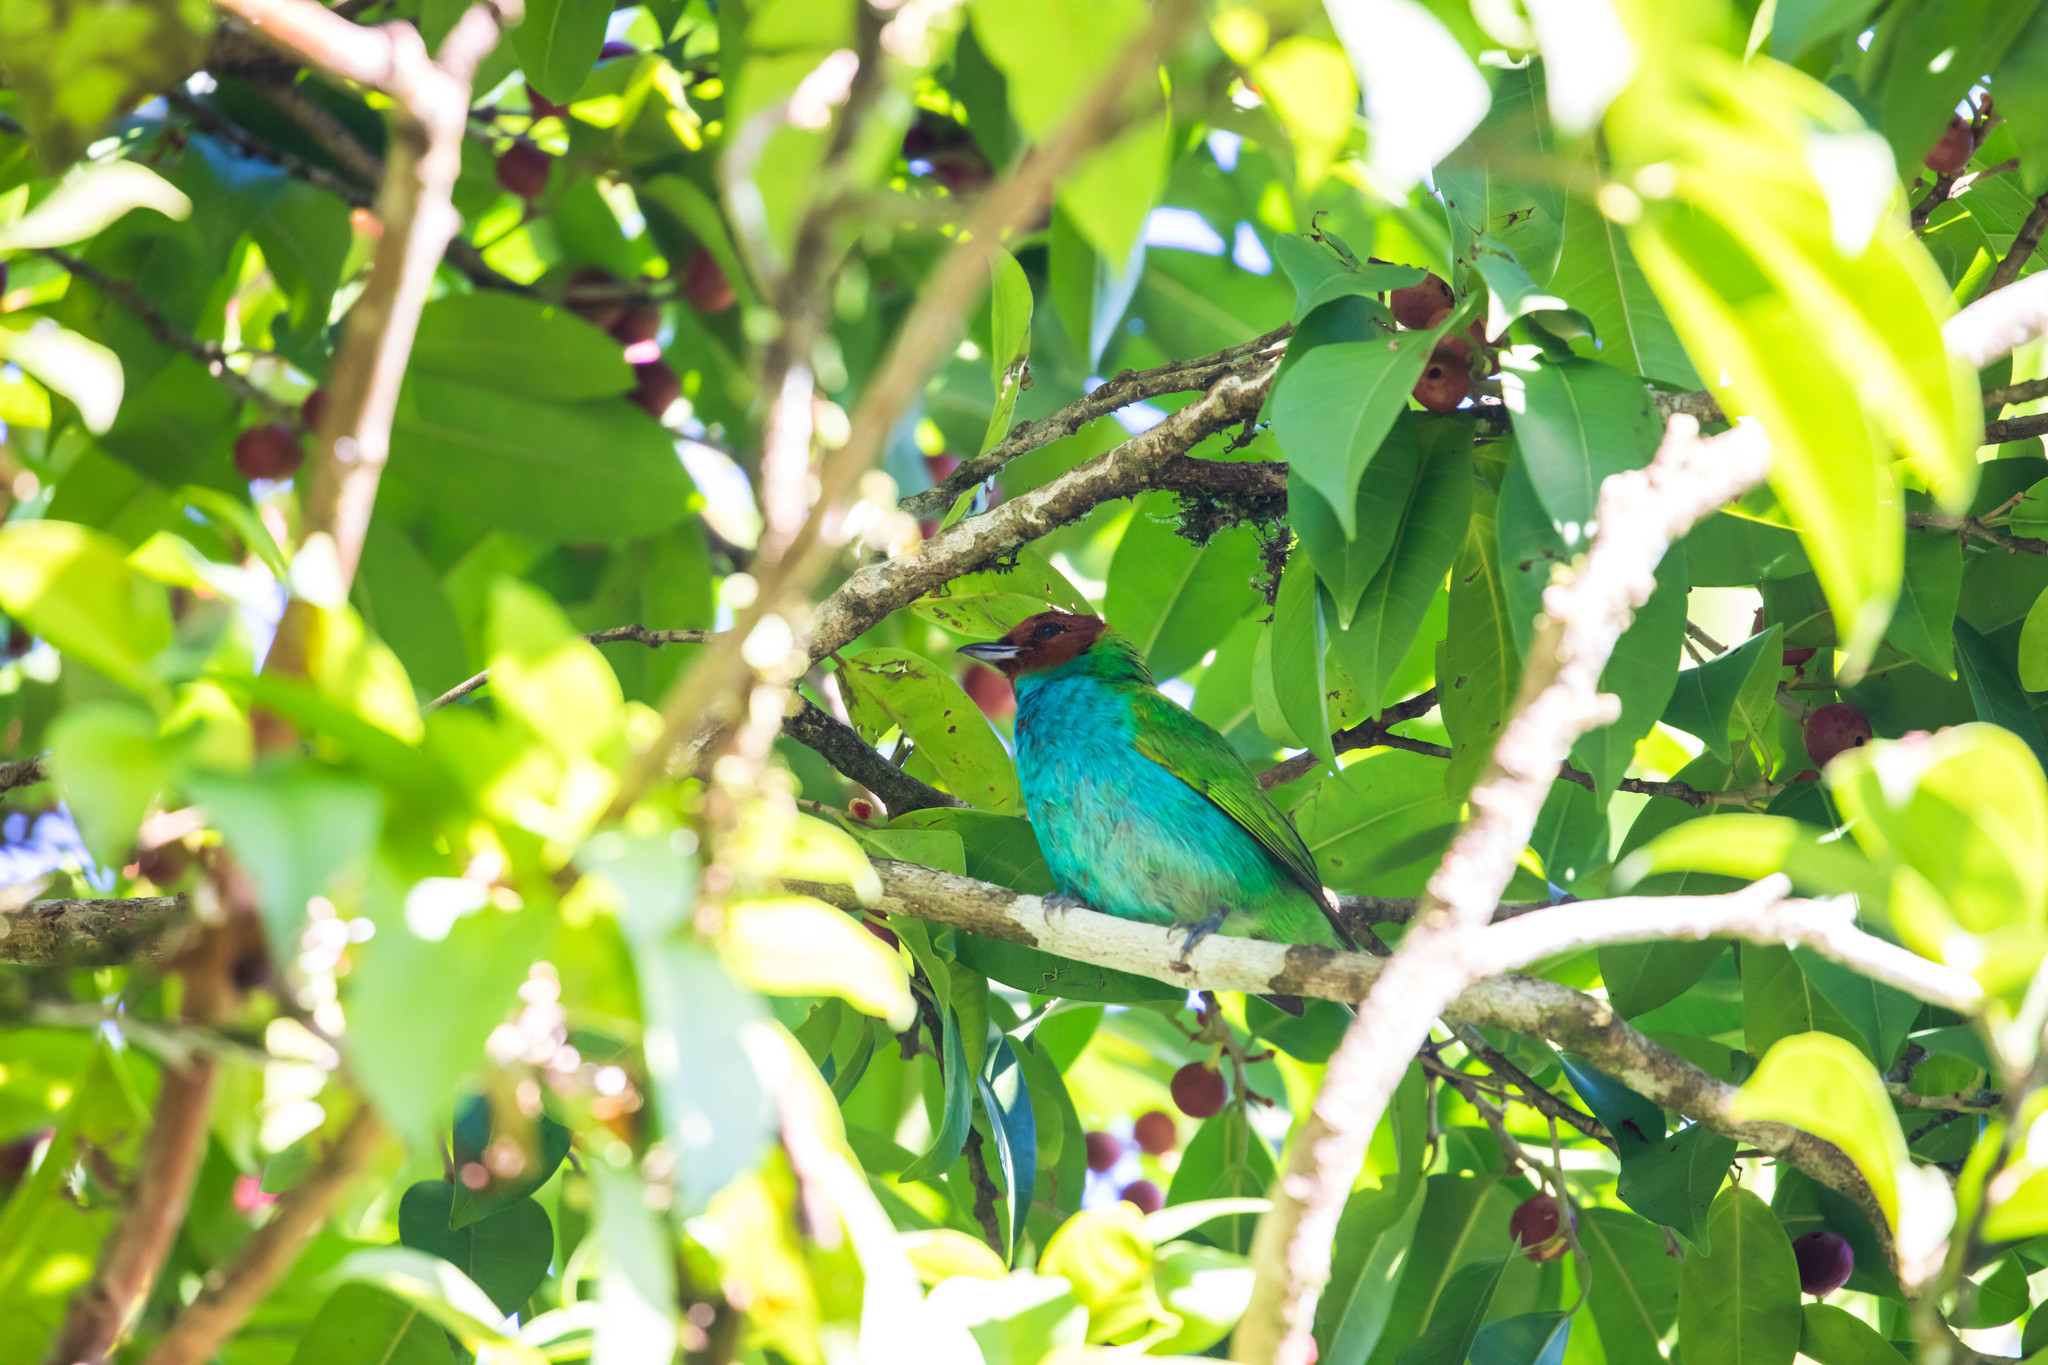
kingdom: Animalia
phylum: Chordata
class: Aves
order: Passeriformes
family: Thraupidae
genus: Tangara
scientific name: Tangara gyrola
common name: Bay-headed tanager
